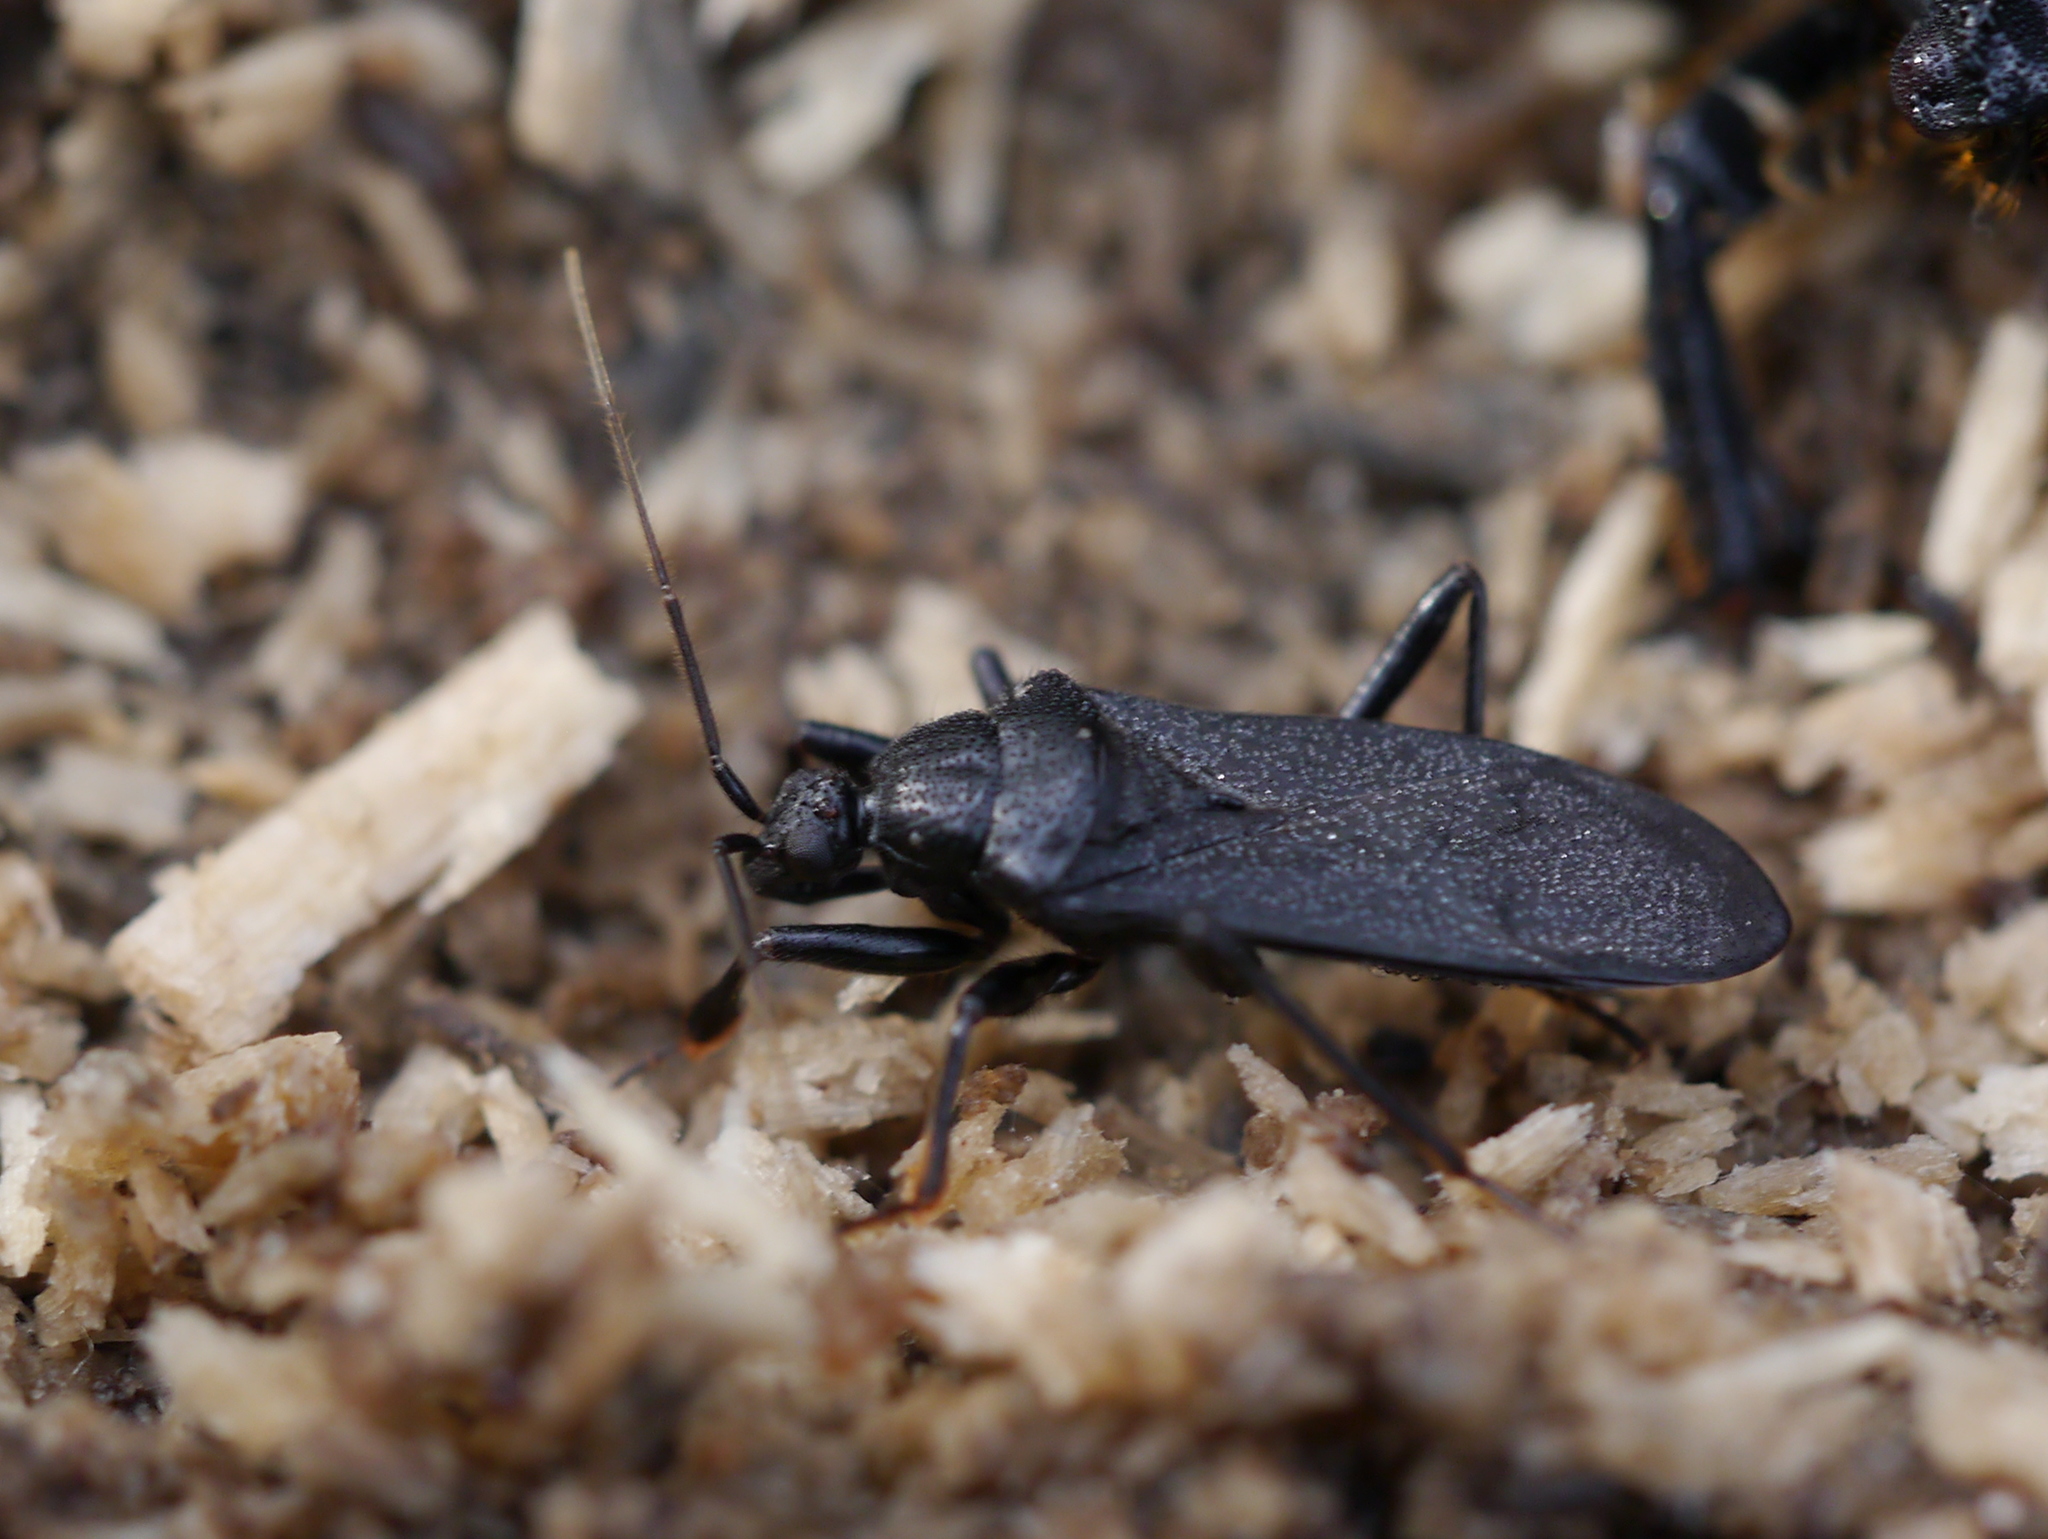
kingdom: Animalia
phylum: Arthropoda
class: Insecta
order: Hemiptera
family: Reduviidae
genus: Melanolestes
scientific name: Melanolestes picipes
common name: Assassin bug
